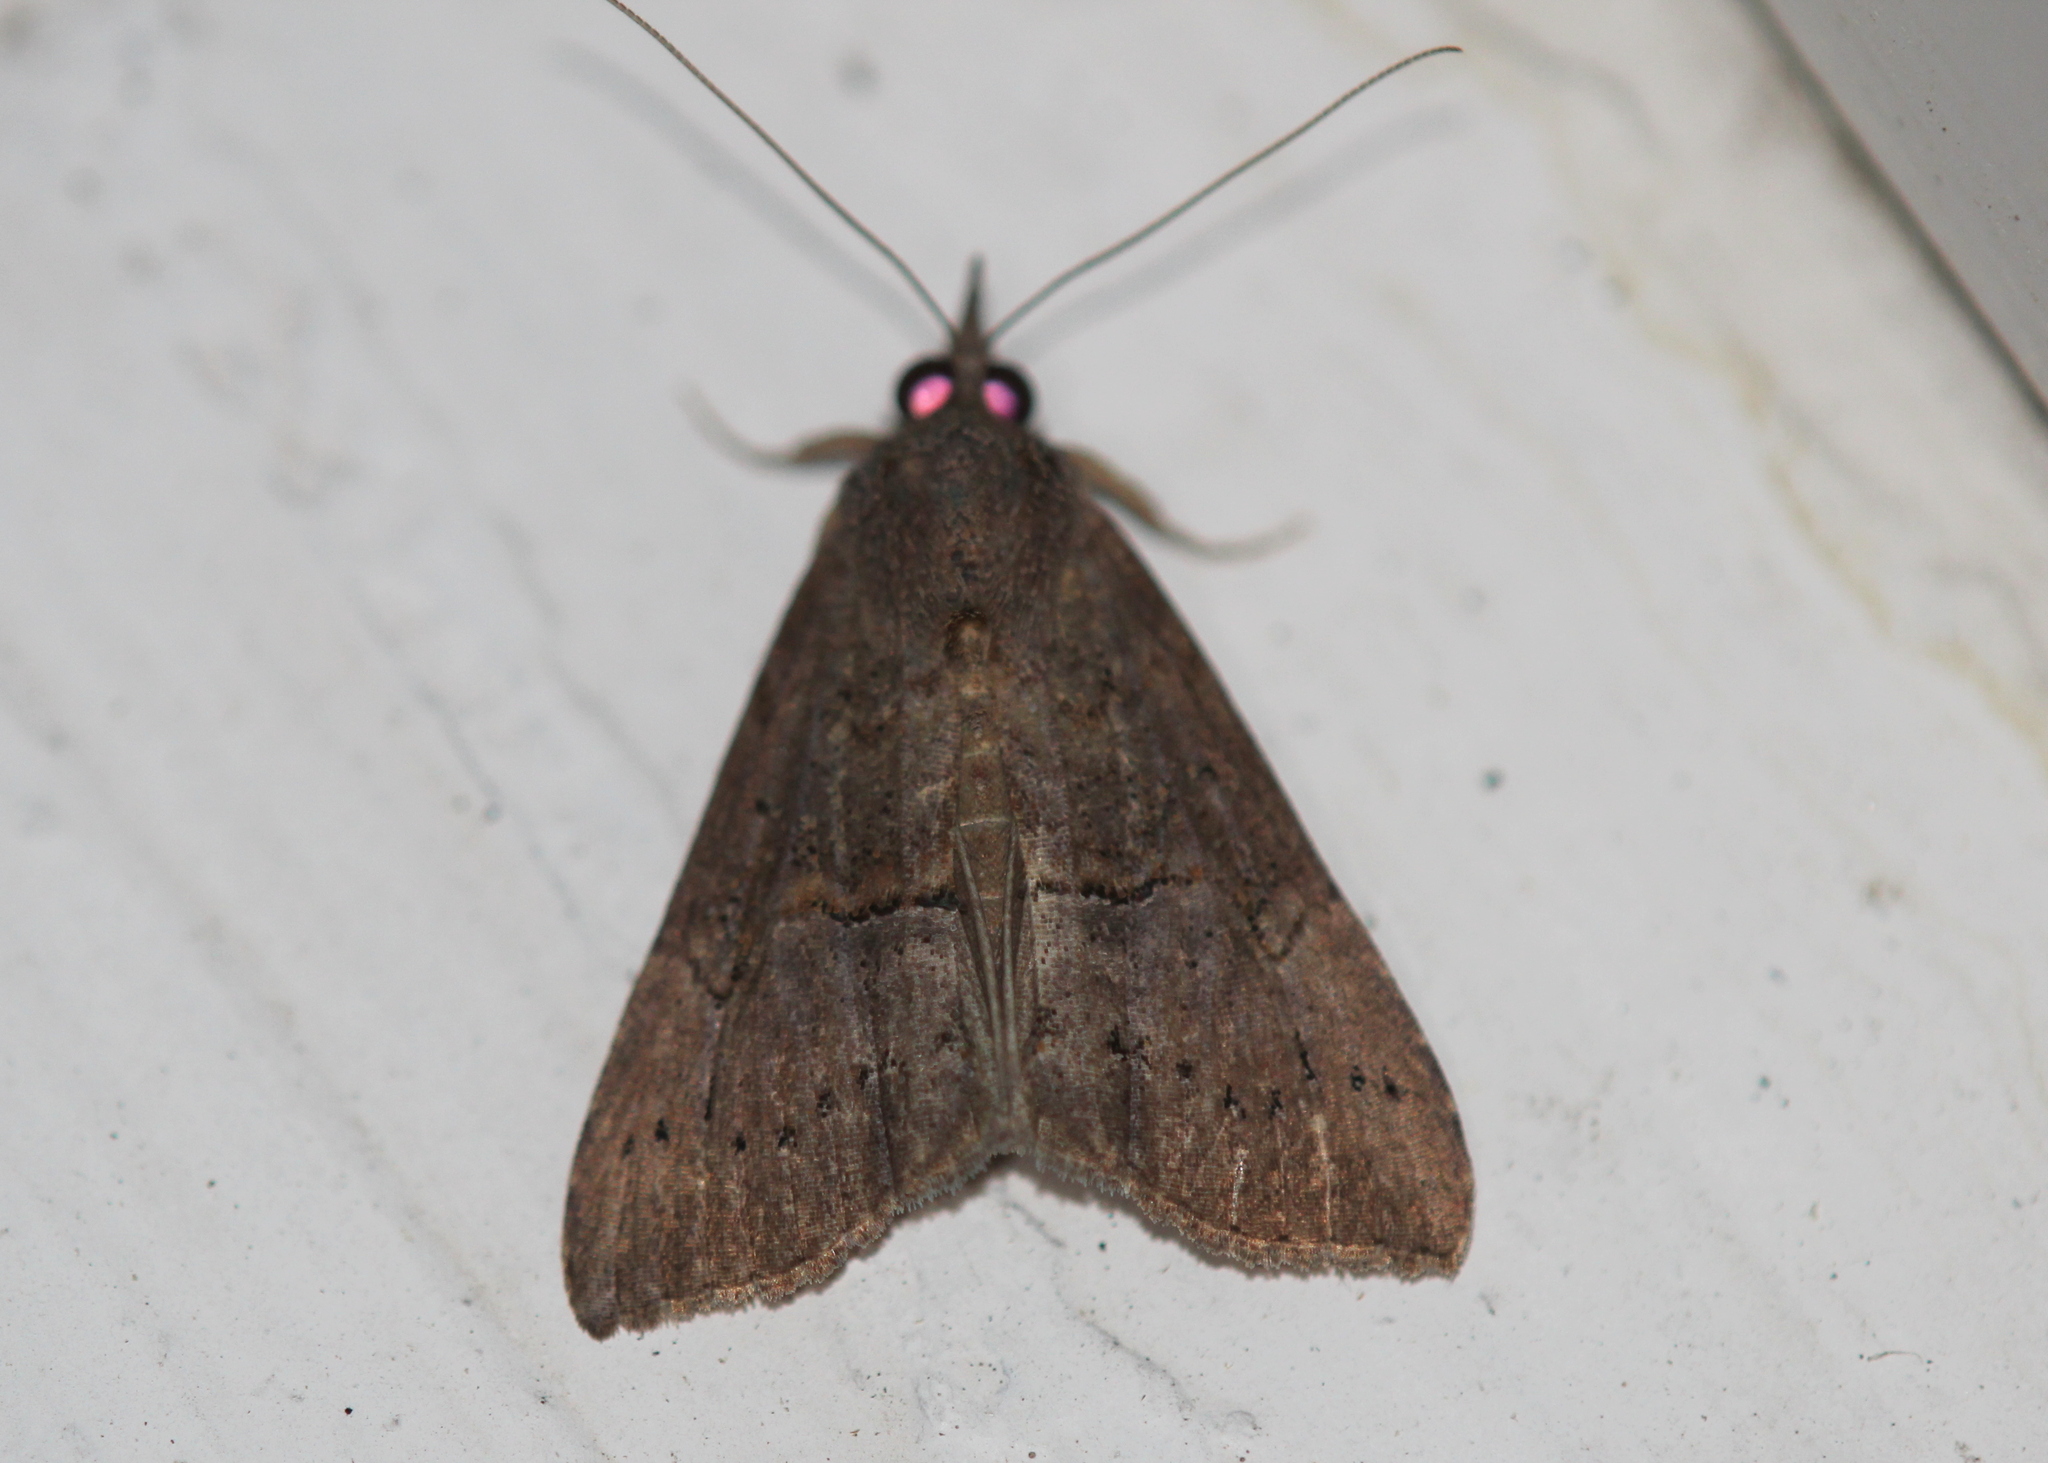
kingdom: Animalia
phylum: Arthropoda
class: Insecta
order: Lepidoptera
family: Erebidae
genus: Hypena
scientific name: Hypena scabra
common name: Green cloverworm
